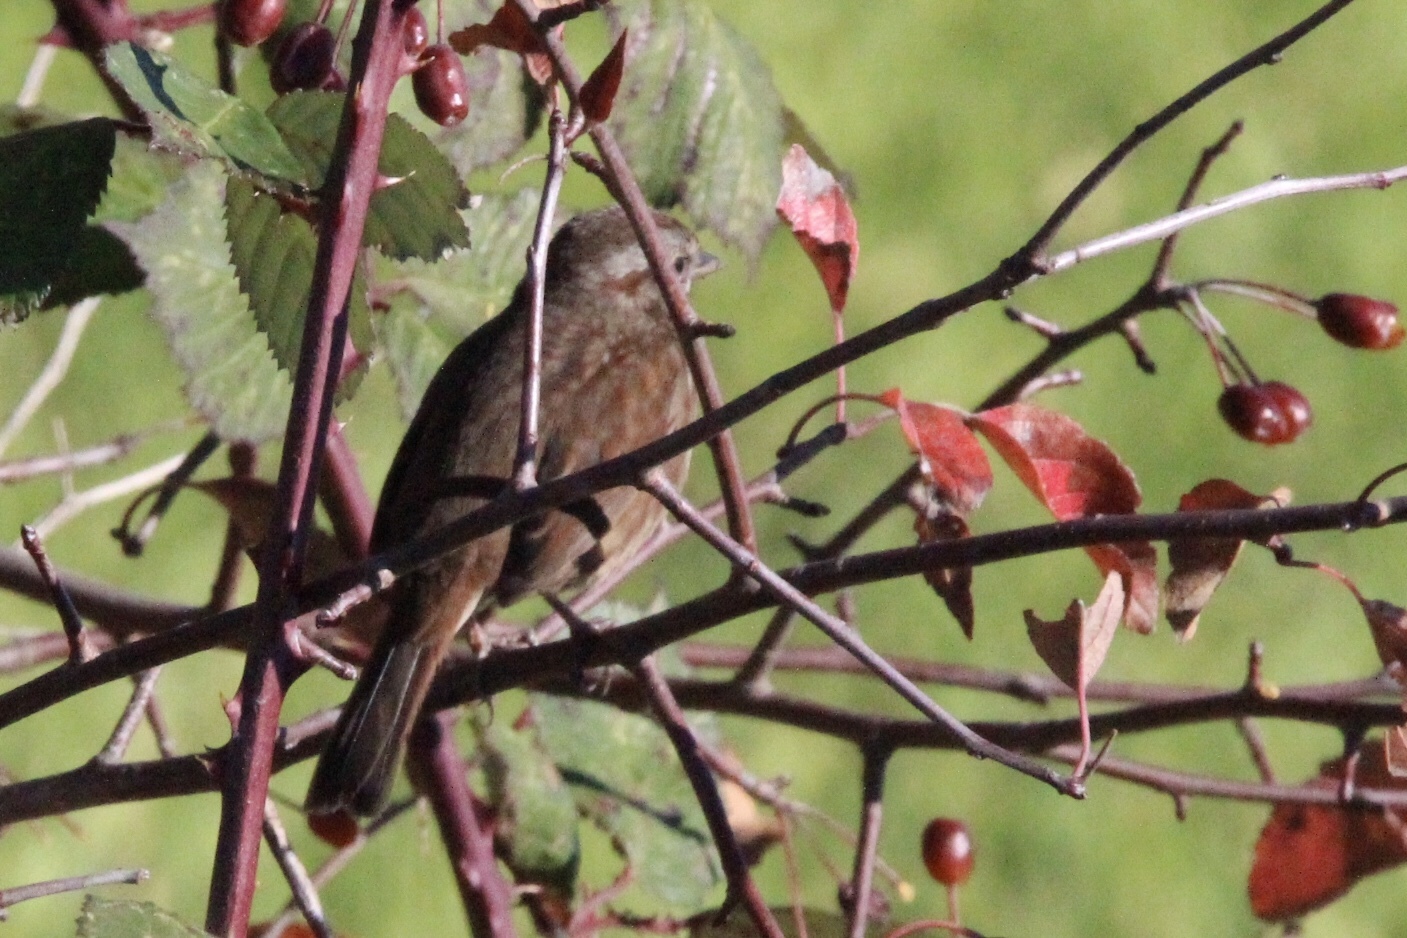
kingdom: Animalia
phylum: Chordata
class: Aves
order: Passeriformes
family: Passerellidae
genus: Melospiza
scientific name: Melospiza melodia
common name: Song sparrow
